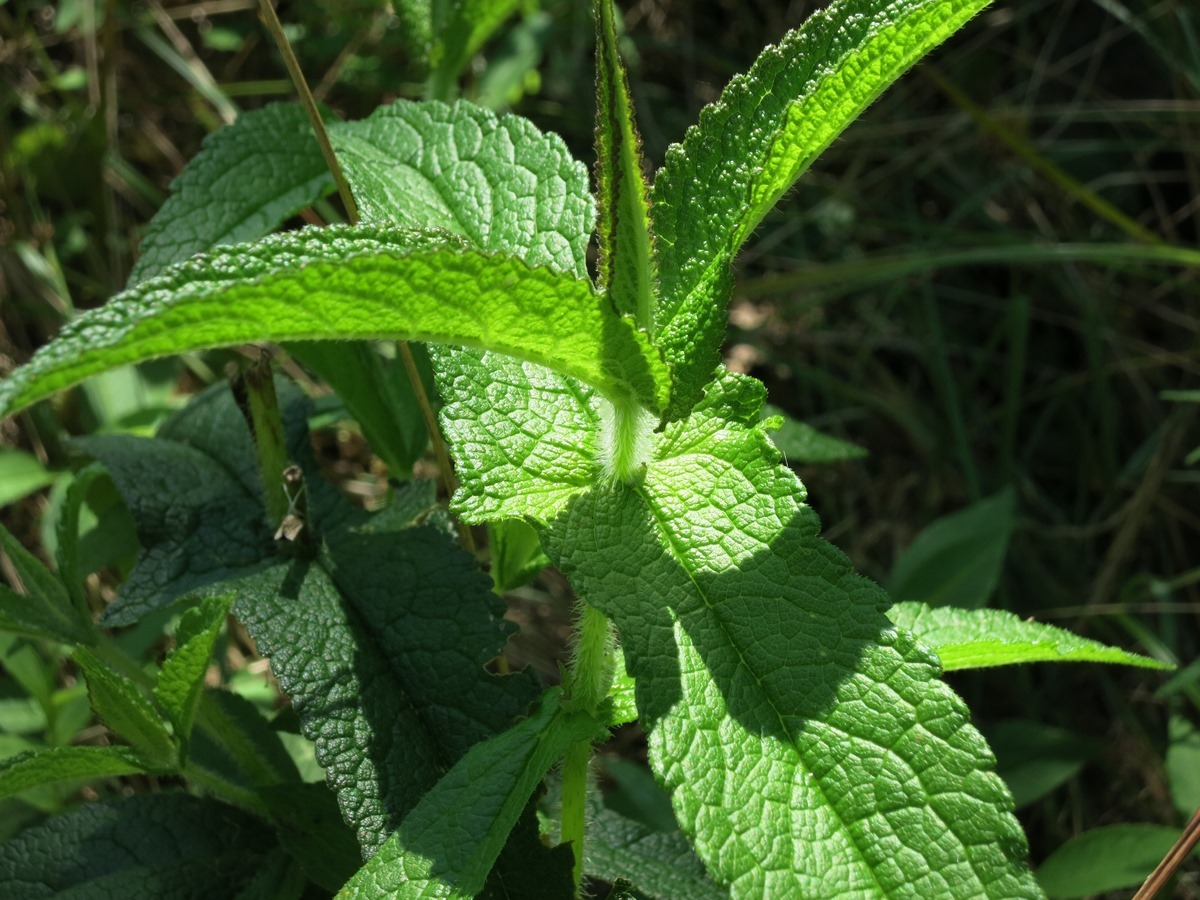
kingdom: Plantae
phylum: Tracheophyta
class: Magnoliopsida
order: Asterales
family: Asteraceae
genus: Eupatorium
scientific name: Eupatorium perfoliatum
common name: Boneset
